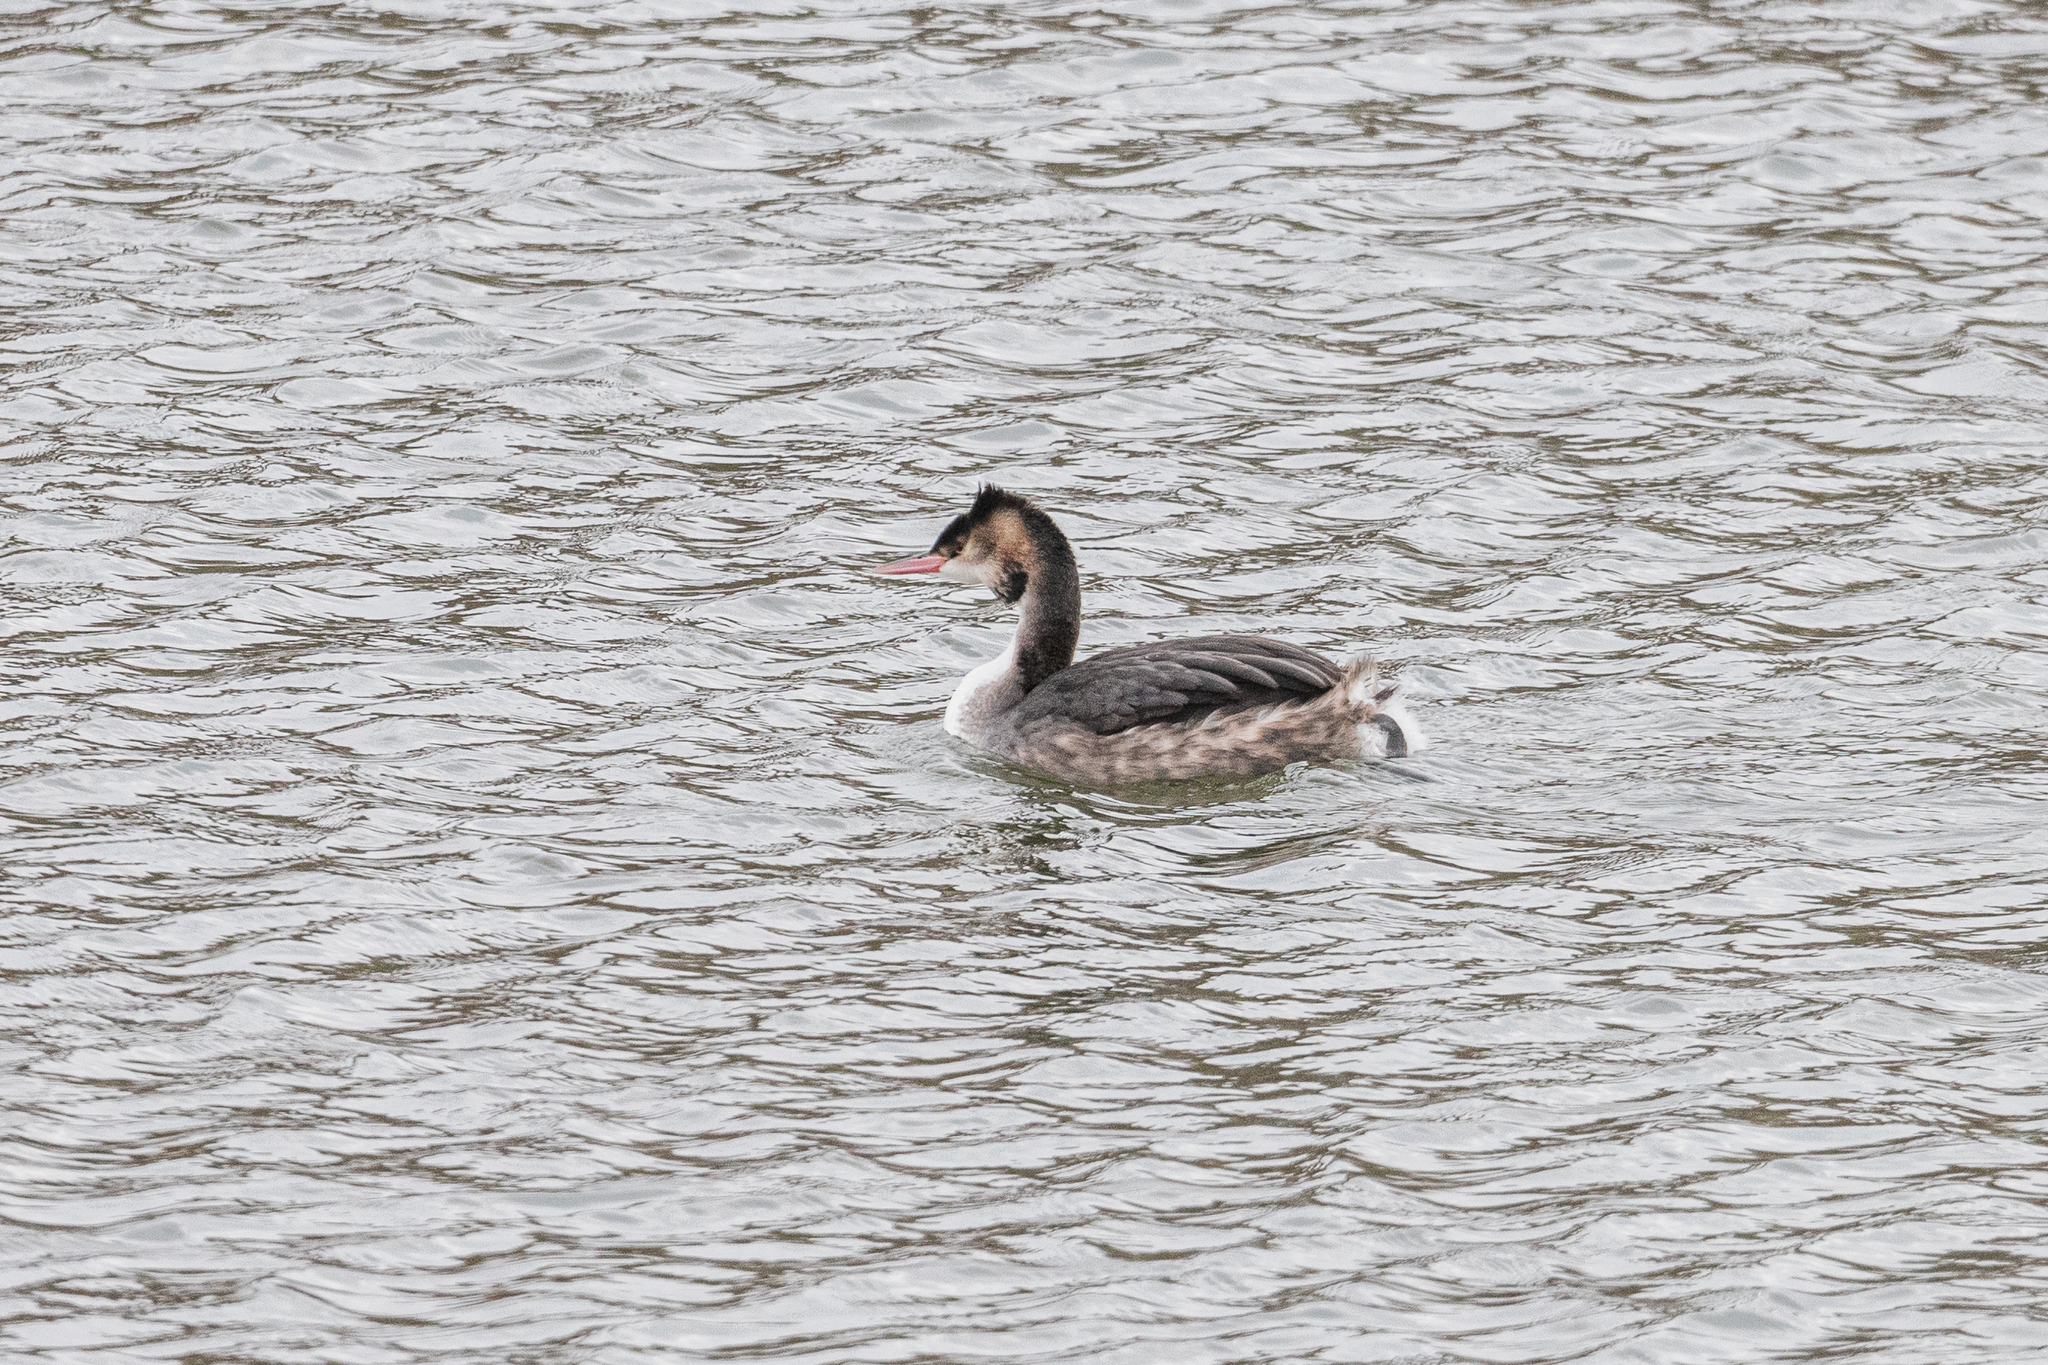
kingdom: Animalia
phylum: Chordata
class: Aves
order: Podicipediformes
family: Podicipedidae
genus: Podiceps
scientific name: Podiceps cristatus
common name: Great crested grebe
